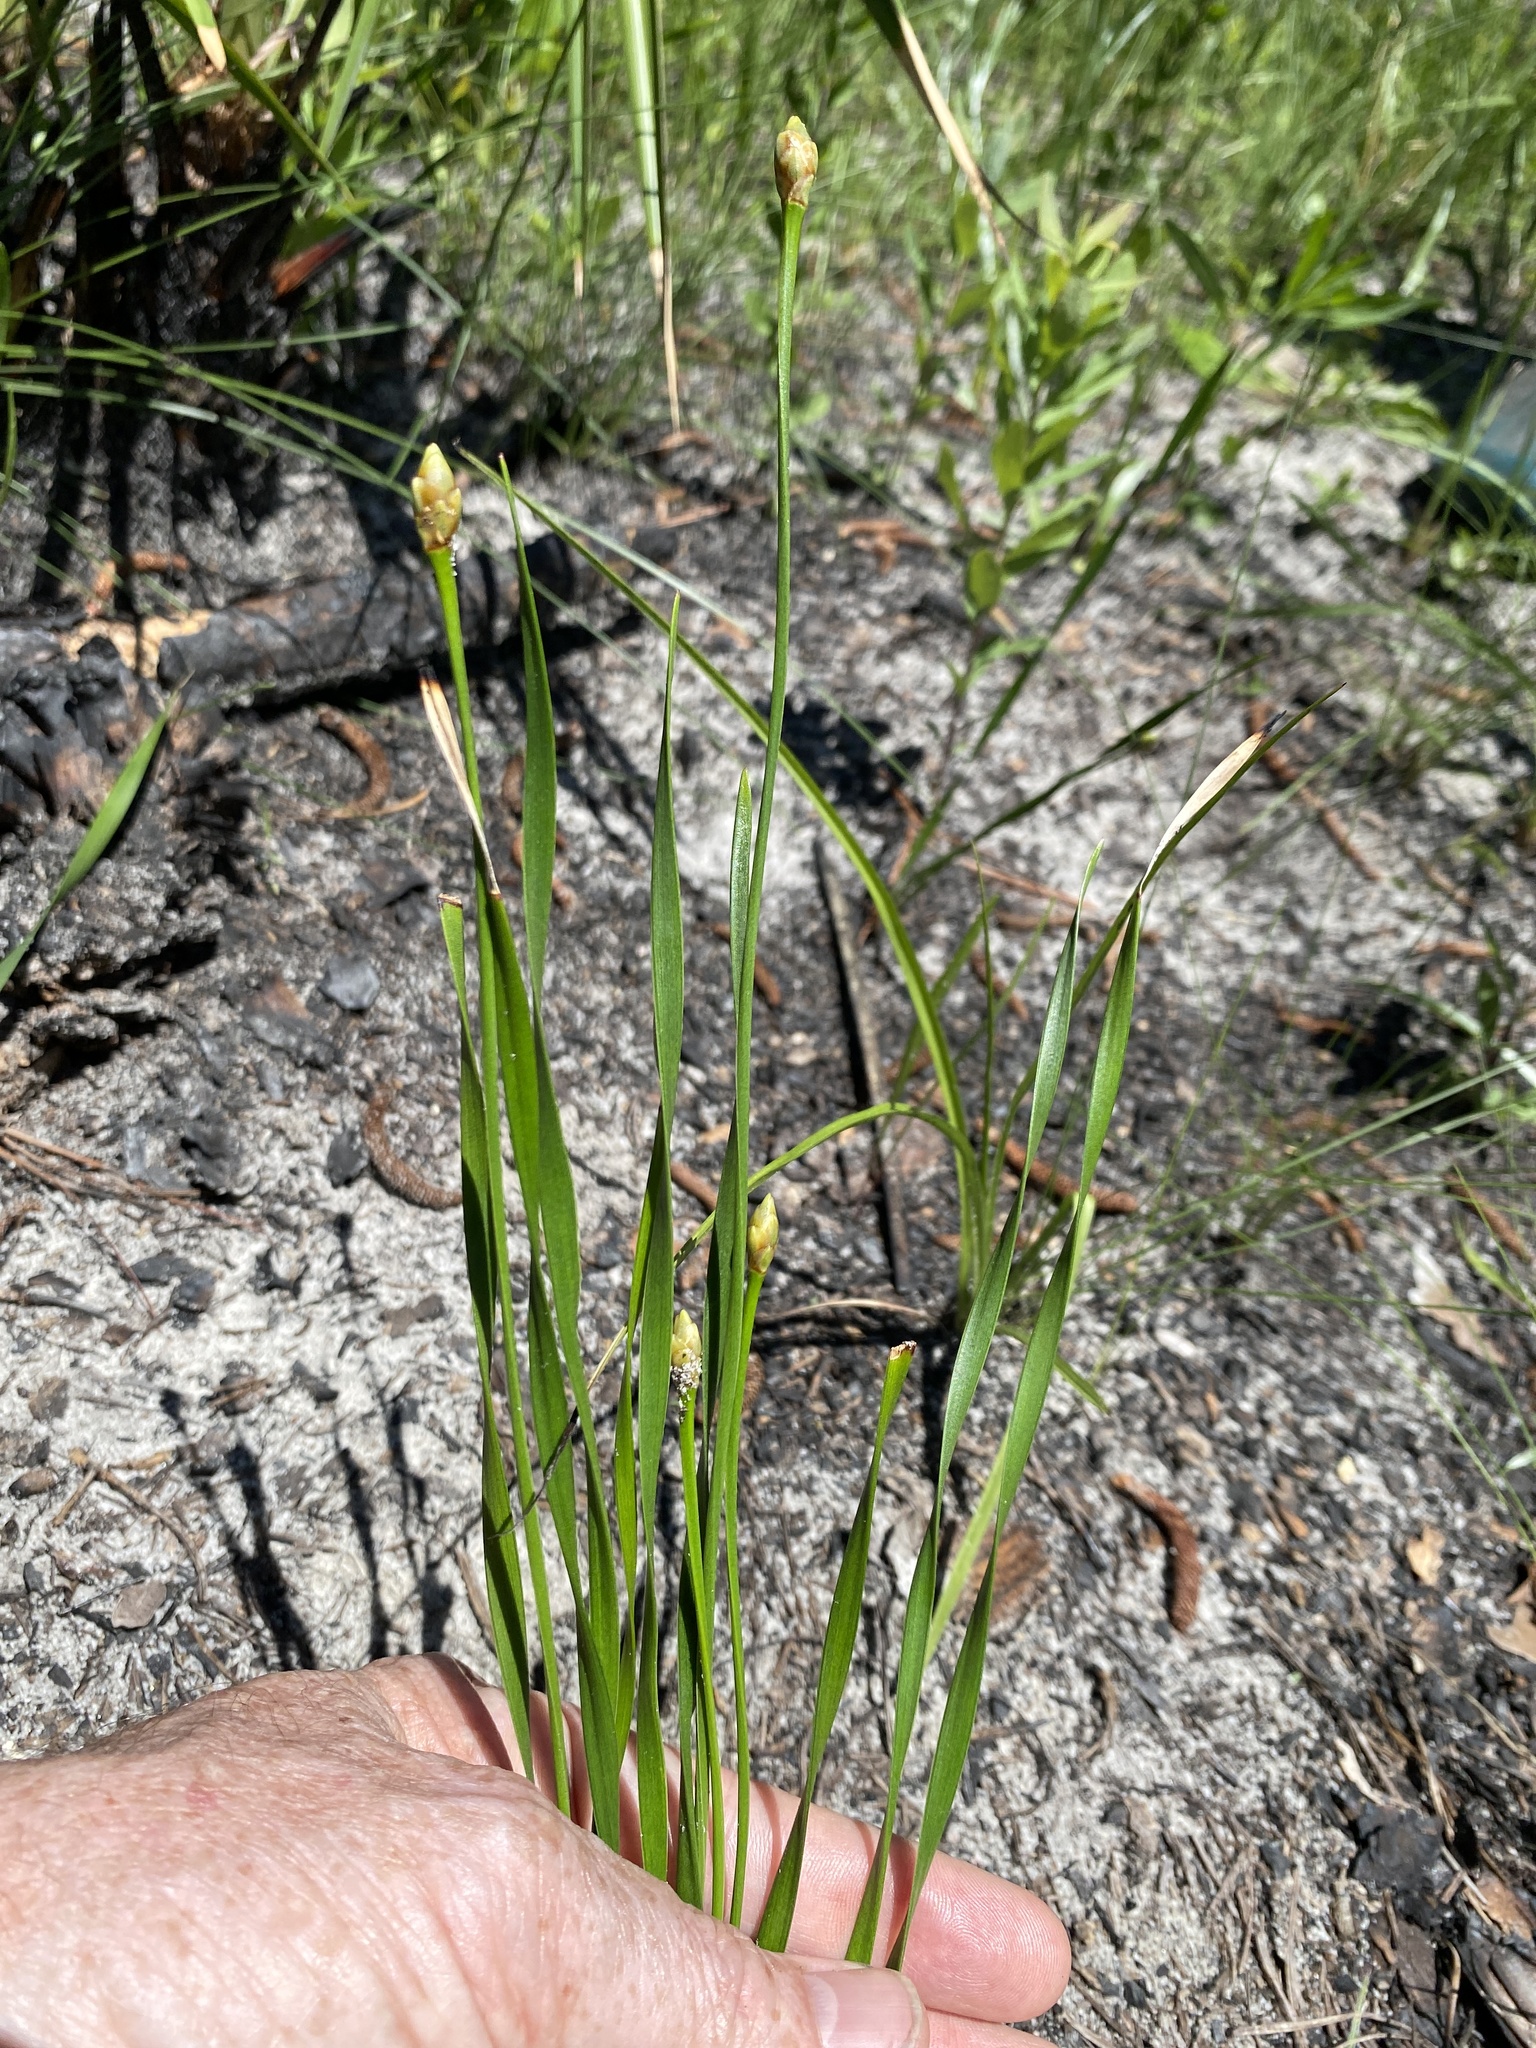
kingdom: Plantae
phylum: Tracheophyta
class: Liliopsida
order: Poales
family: Xyridaceae
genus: Xyris
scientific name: Xyris caroliniana
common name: Carolina yellow-eyed-grass
